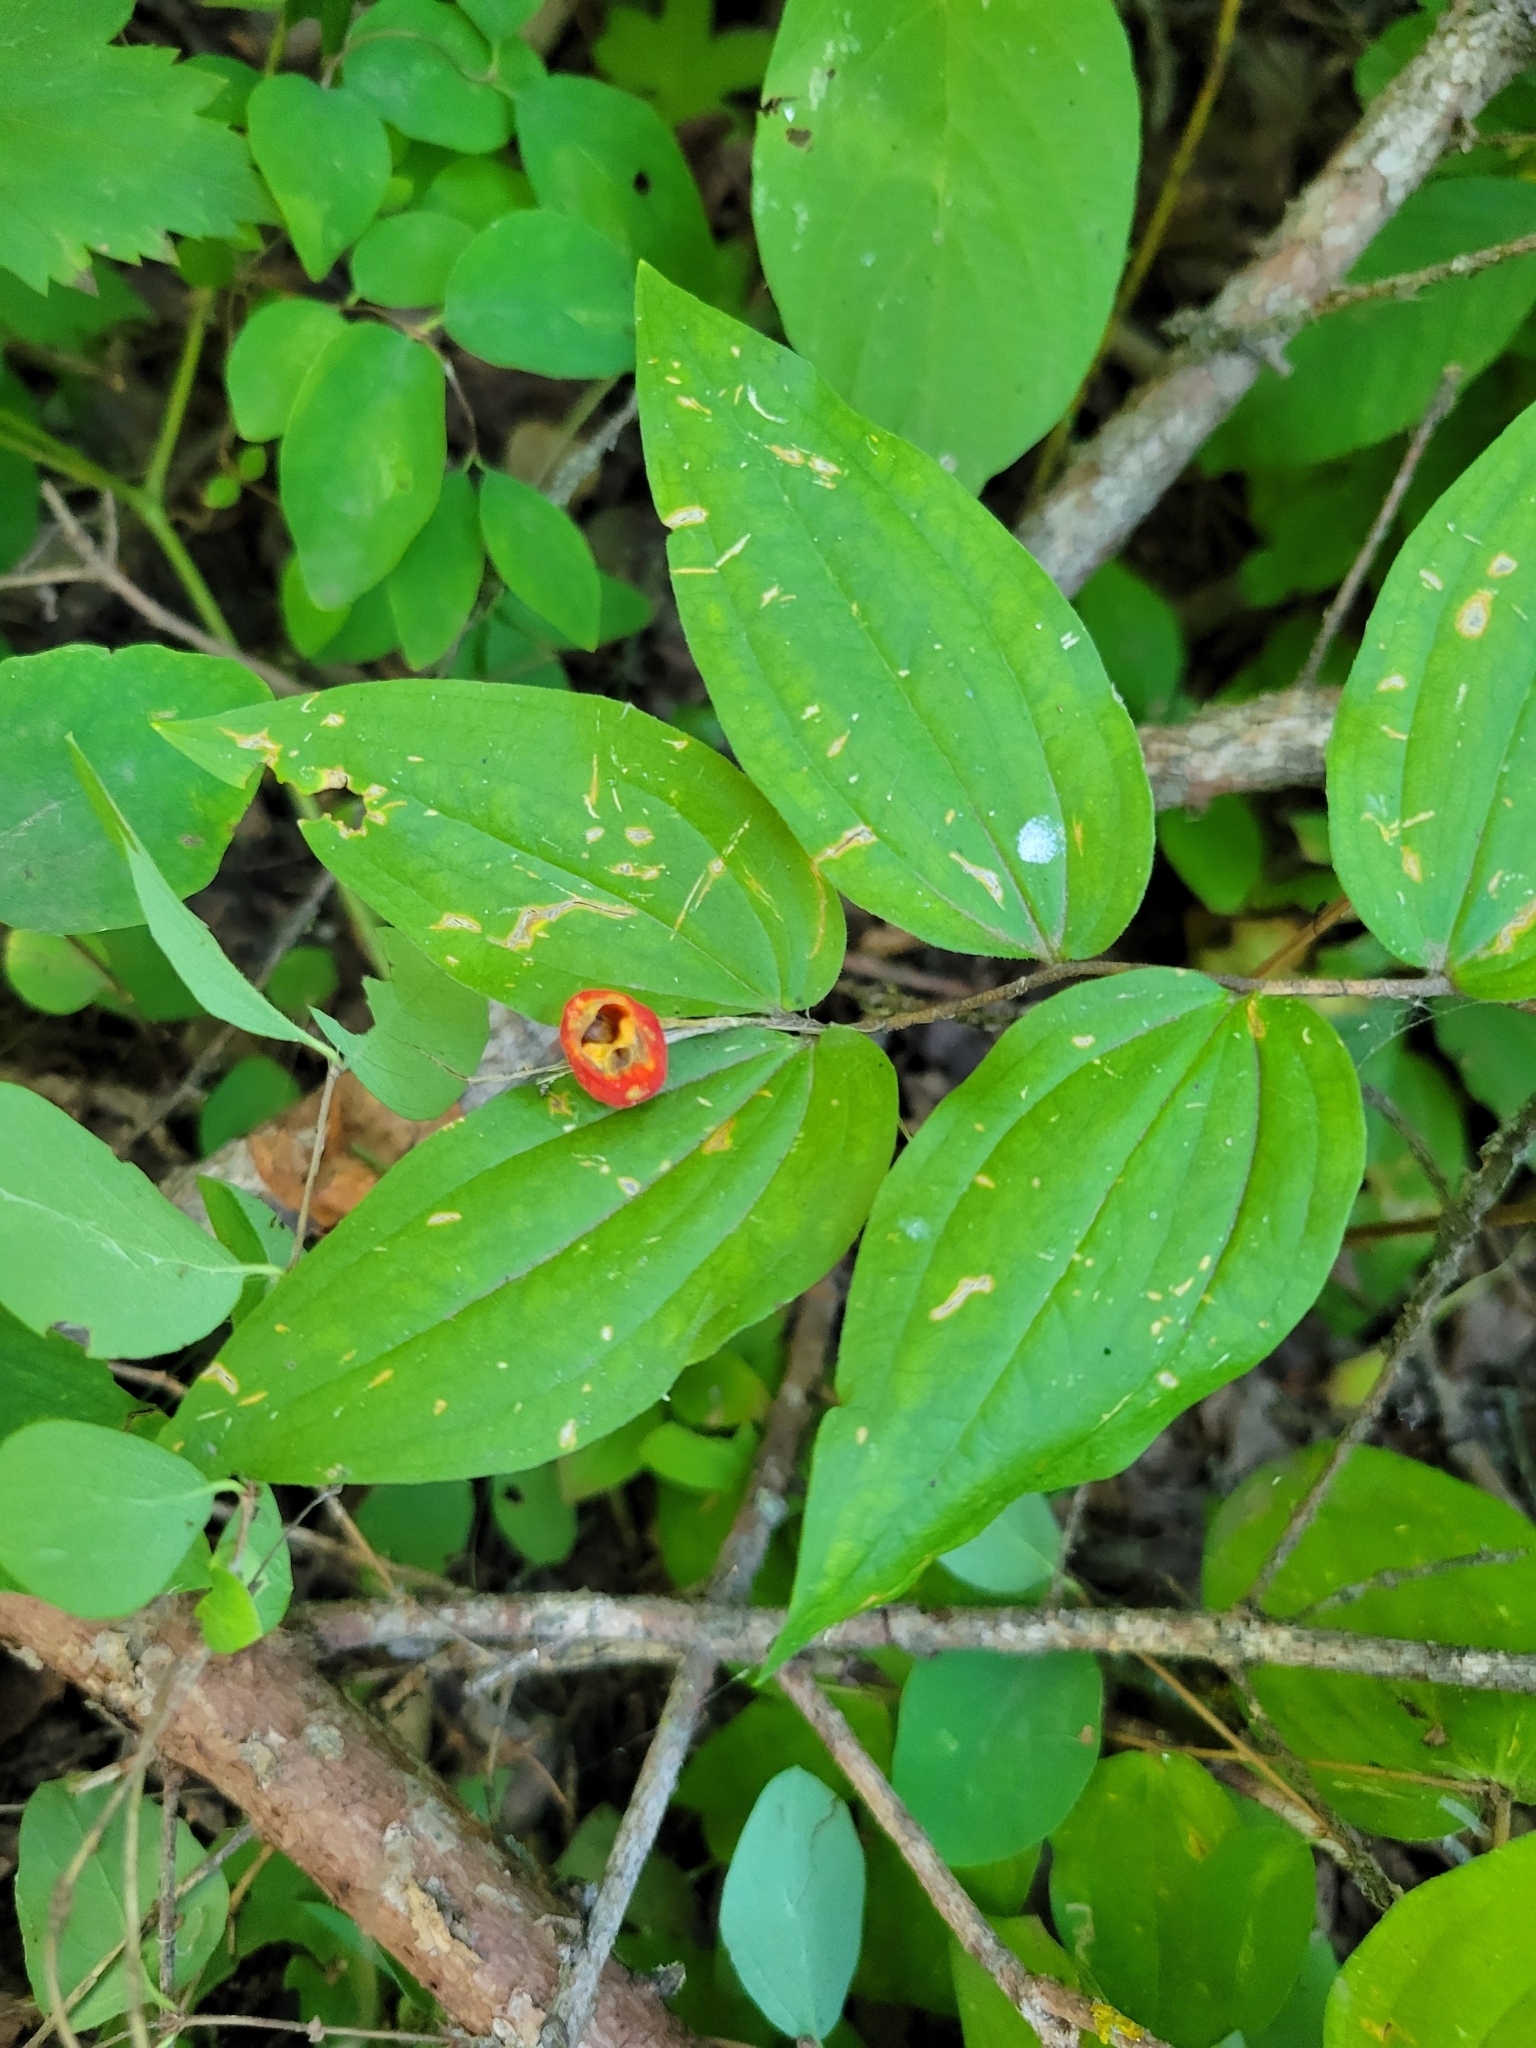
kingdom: Plantae
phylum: Tracheophyta
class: Liliopsida
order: Liliales
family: Liliaceae
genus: Prosartes
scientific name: Prosartes trachycarpa
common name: Rough-fruit fairy-bells
